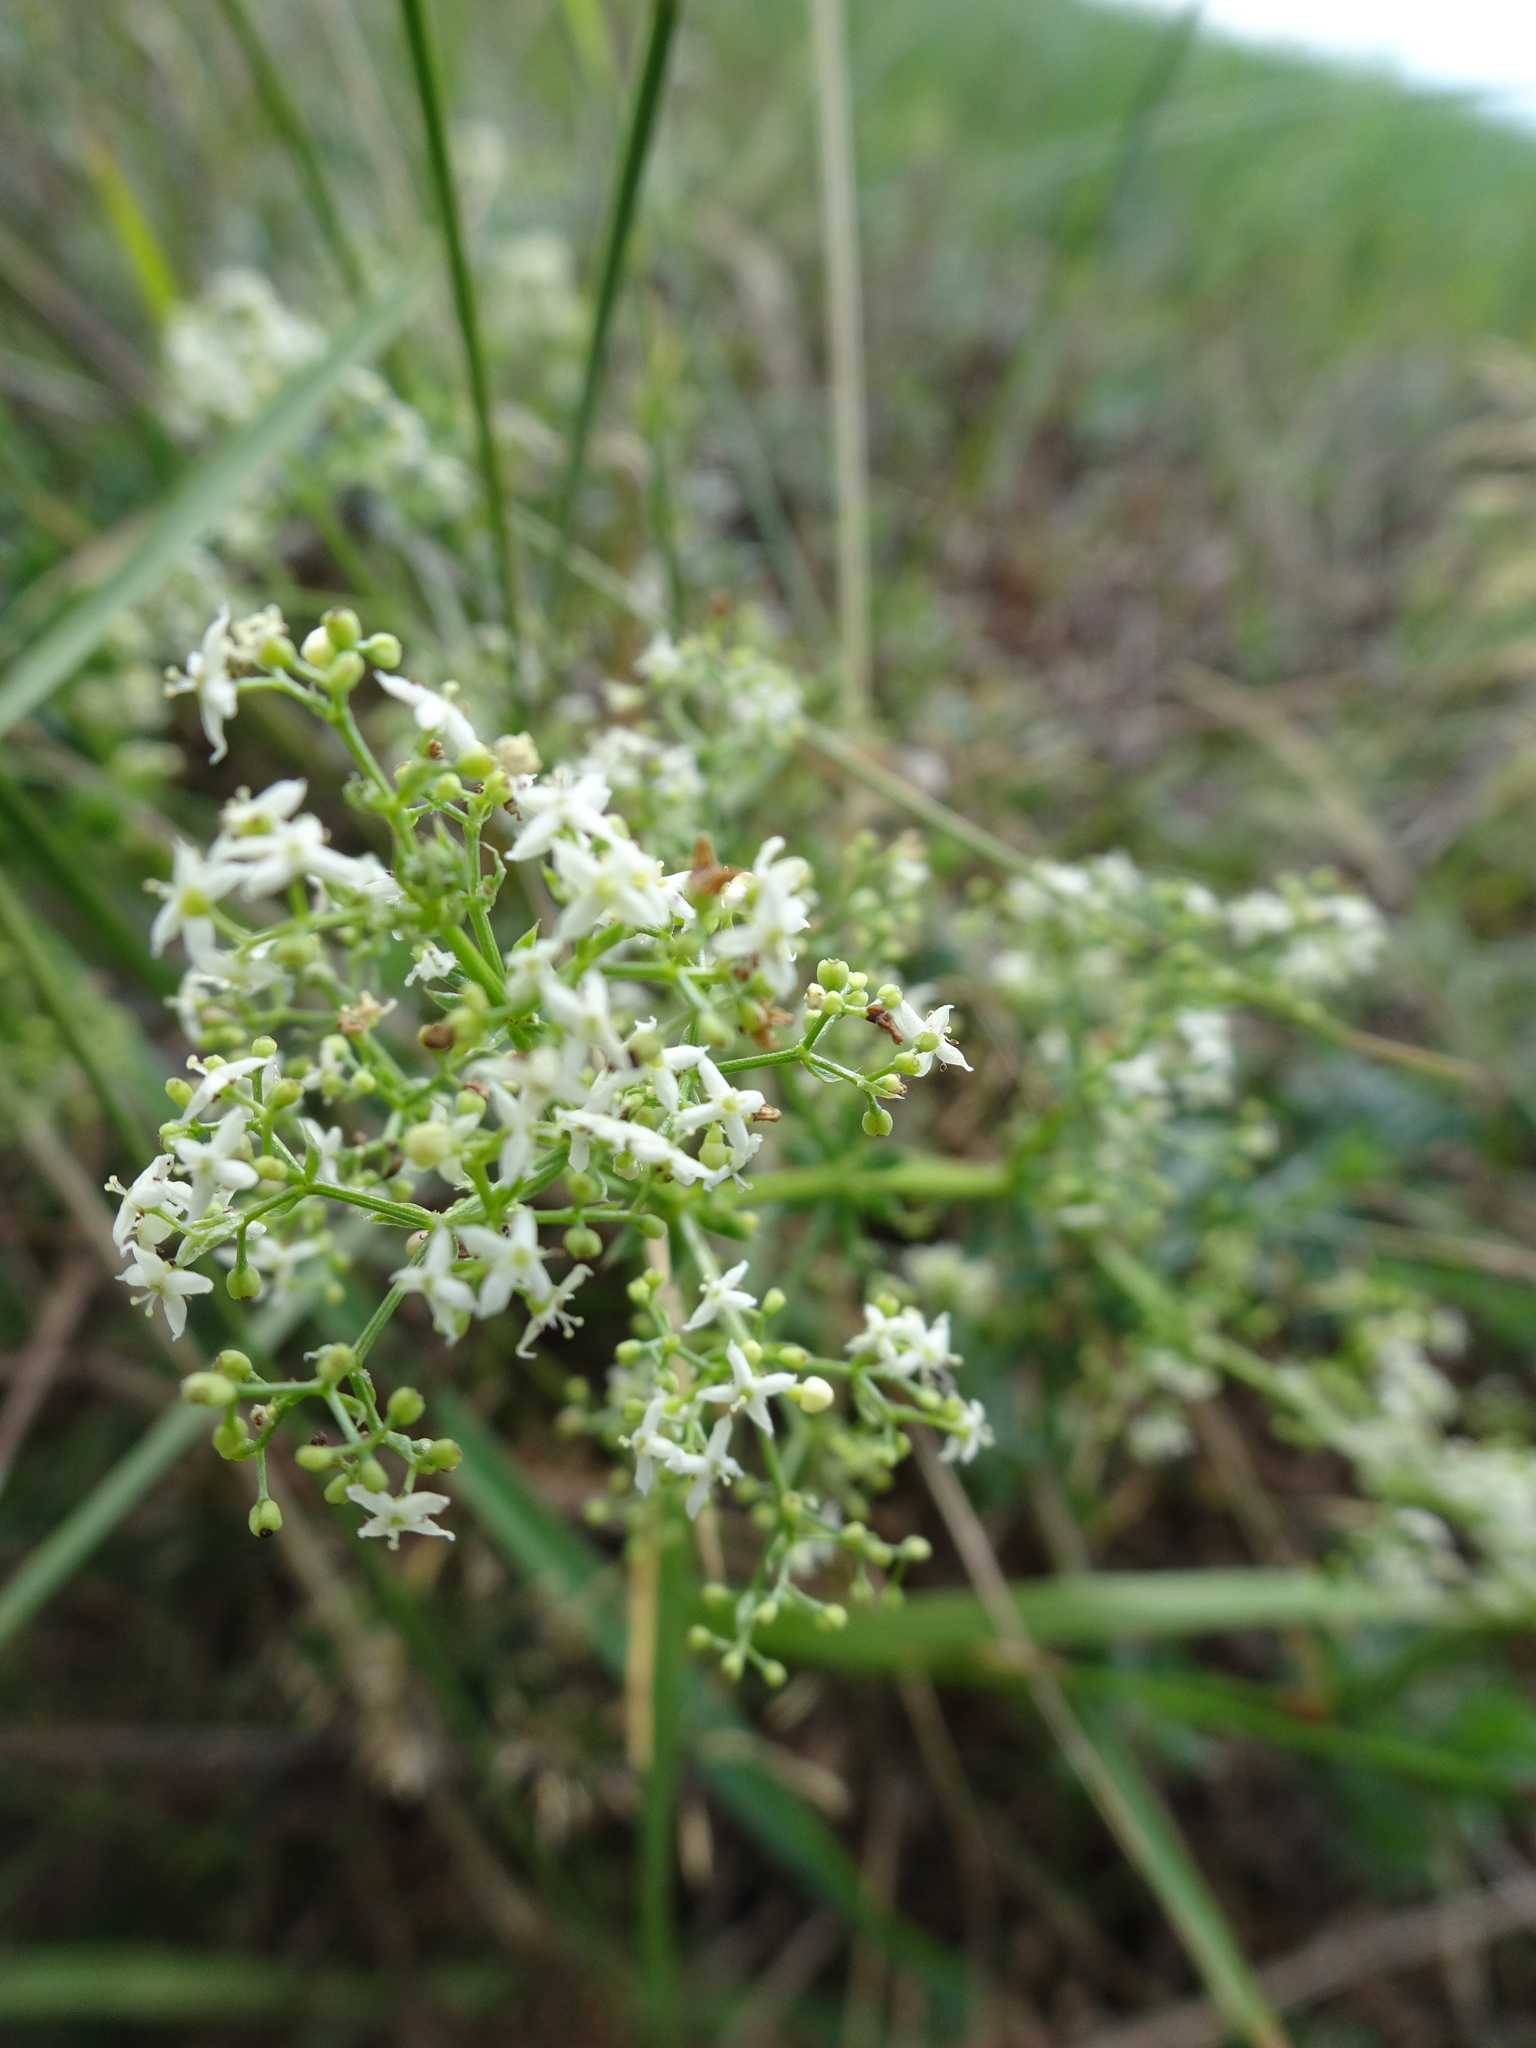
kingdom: Plantae
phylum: Tracheophyta
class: Magnoliopsida
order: Gentianales
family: Rubiaceae
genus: Galium
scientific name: Galium album
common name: White bedstraw
